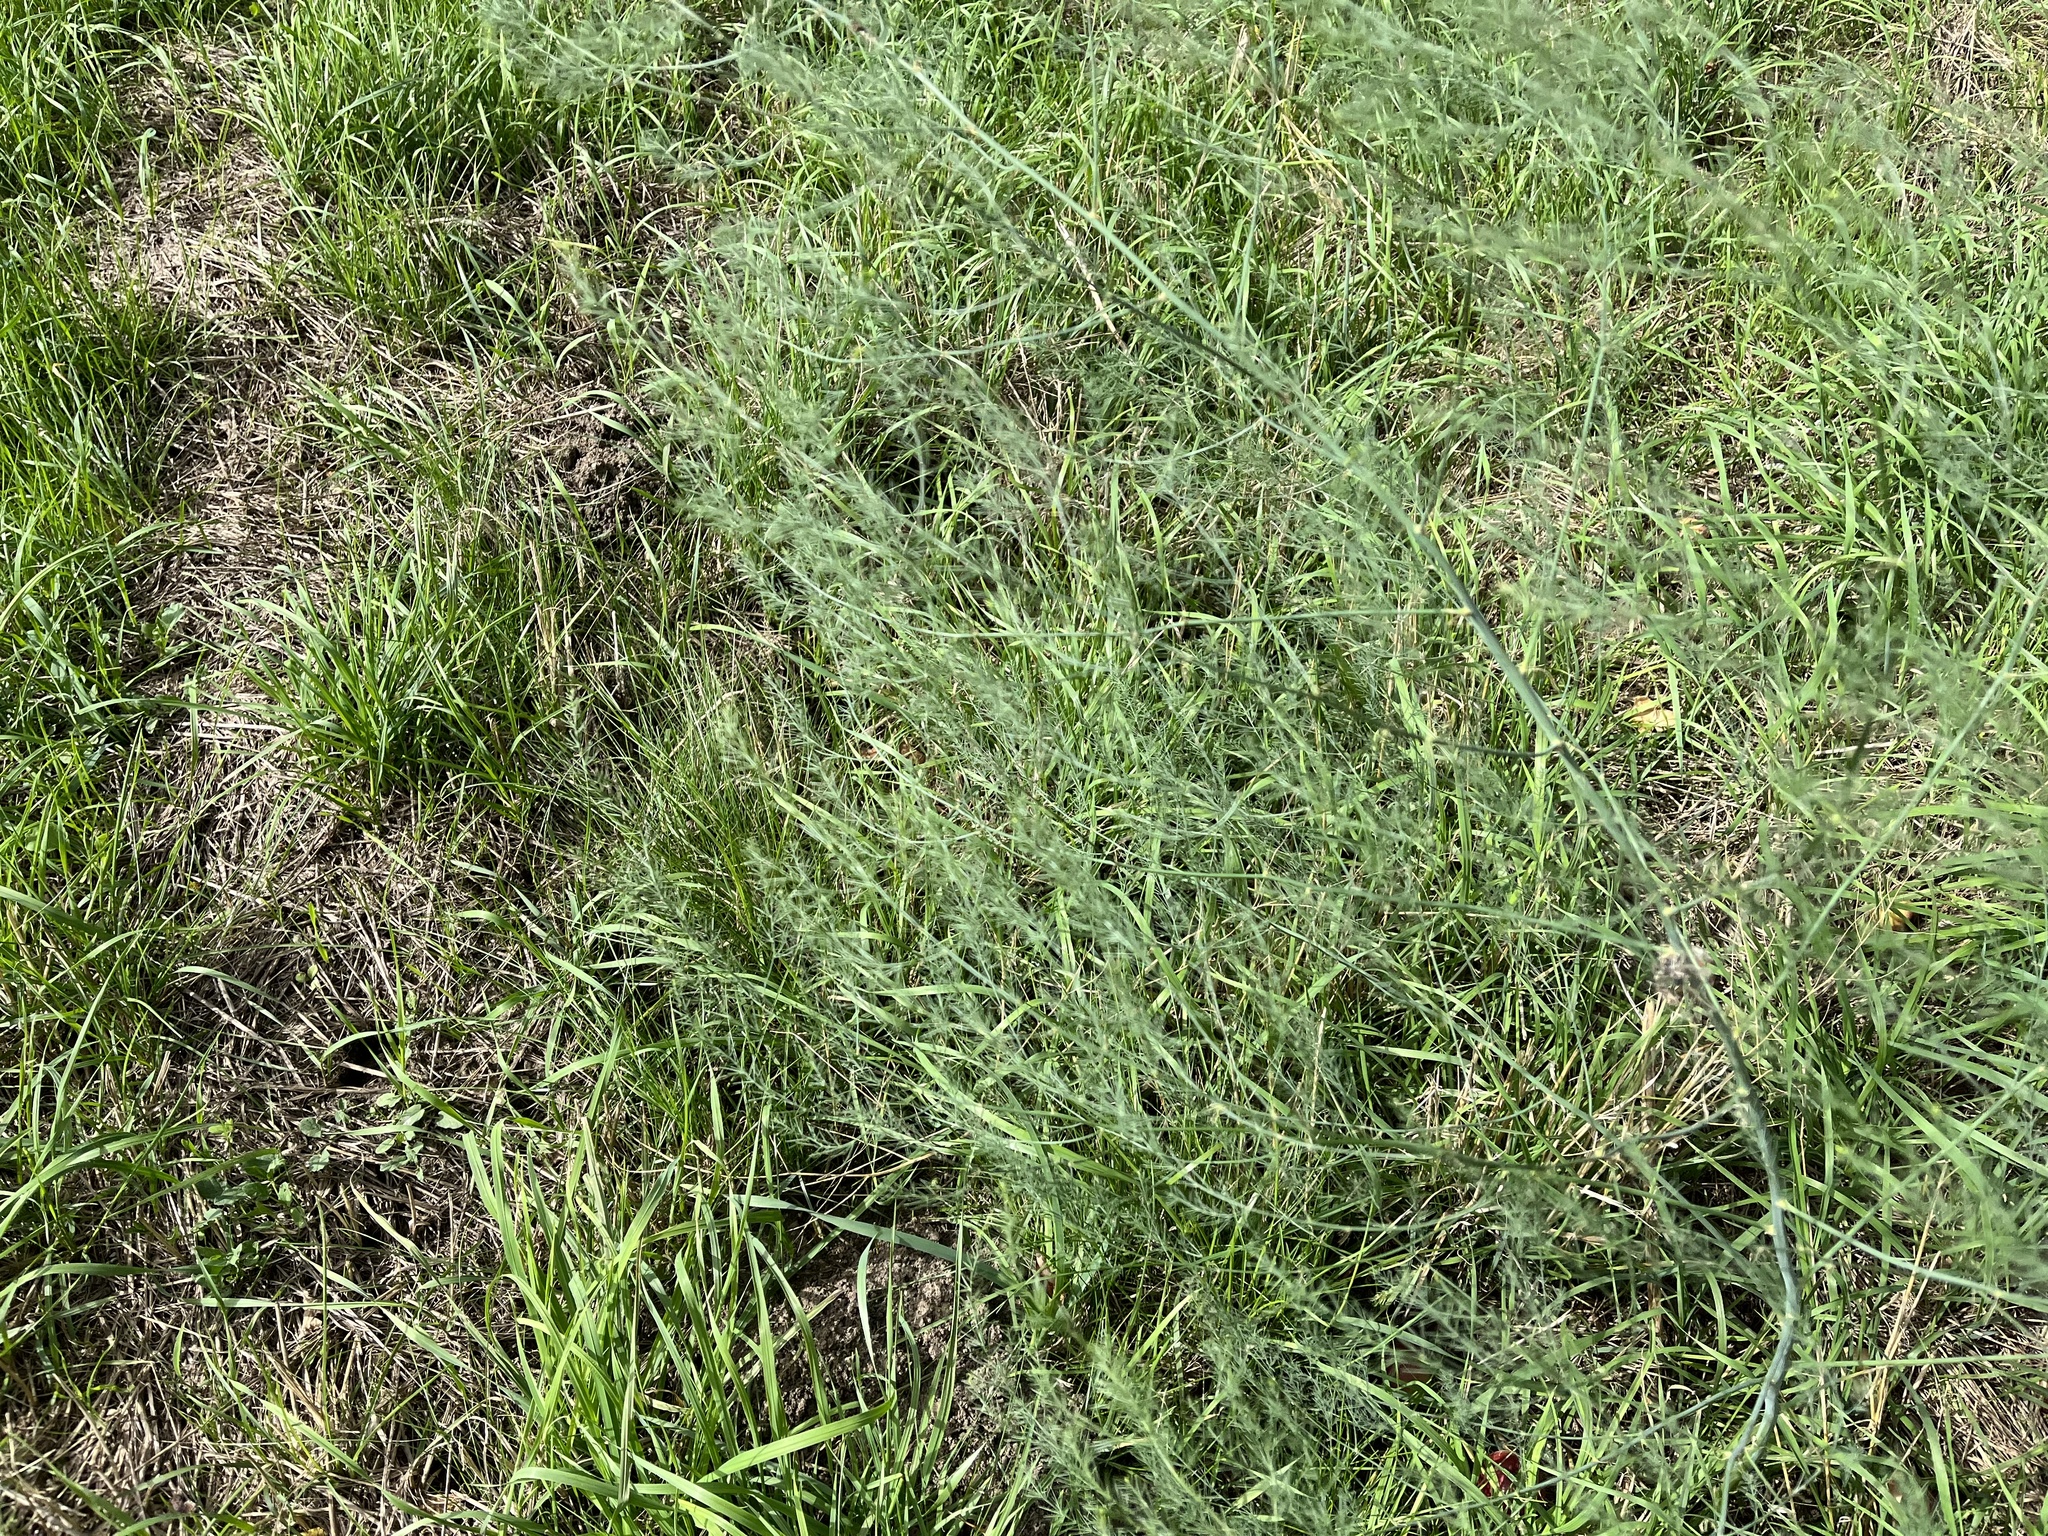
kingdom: Plantae
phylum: Tracheophyta
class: Liliopsida
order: Asparagales
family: Asparagaceae
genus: Asparagus
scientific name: Asparagus officinalis
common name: Garden asparagus
